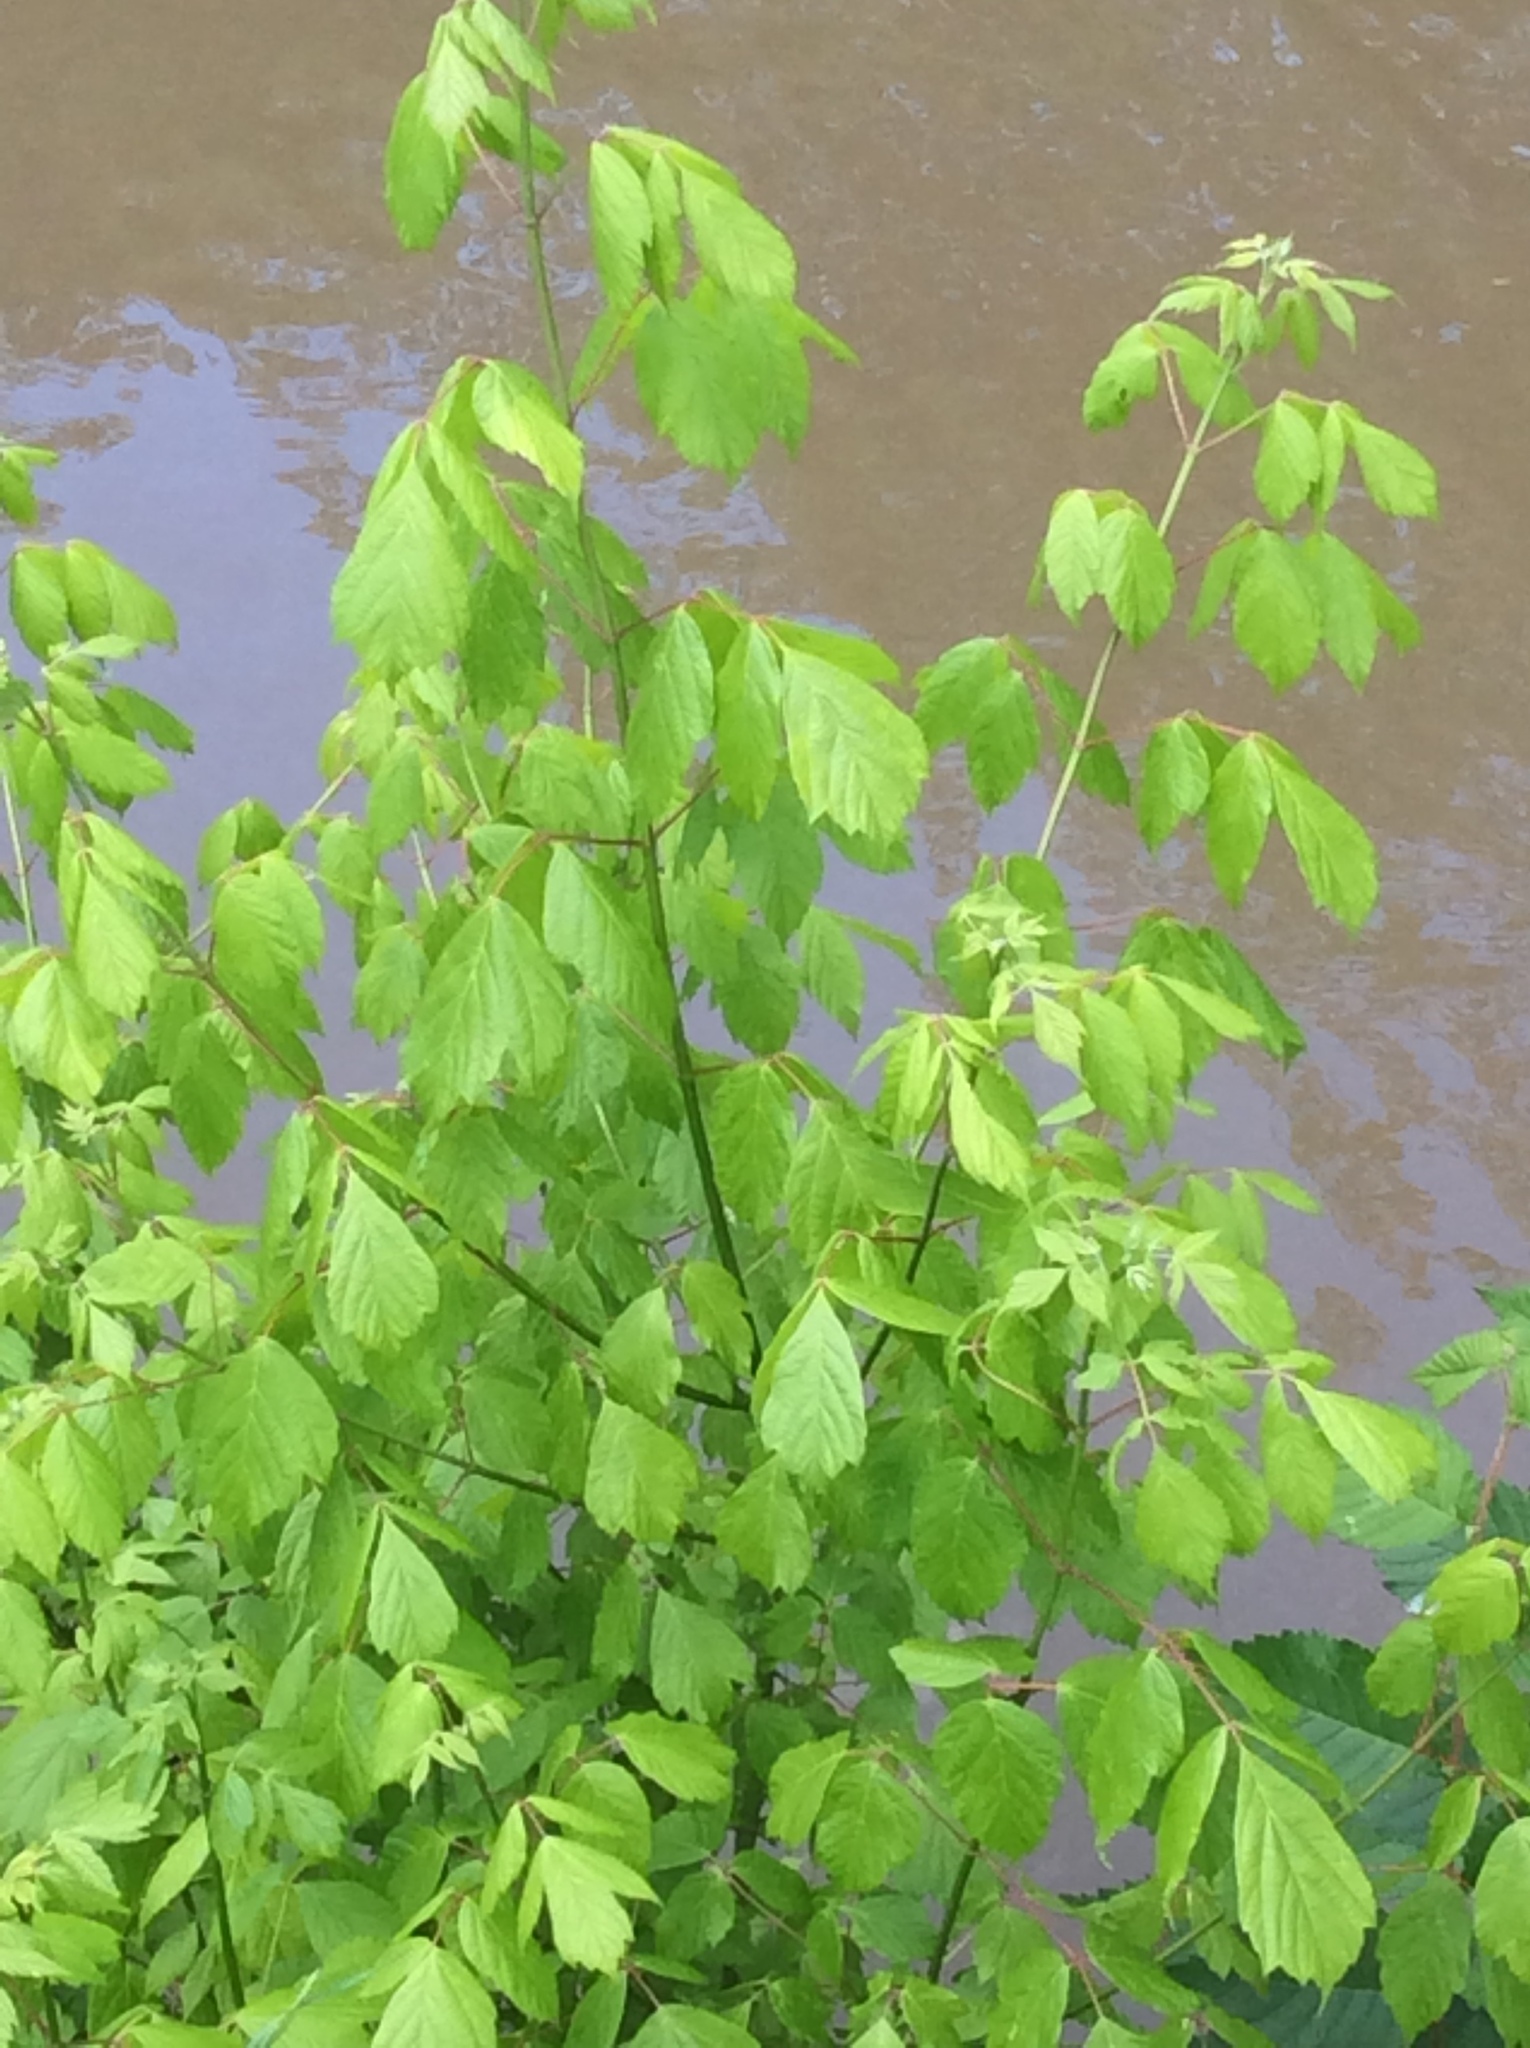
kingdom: Plantae
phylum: Tracheophyta
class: Magnoliopsida
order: Sapindales
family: Sapindaceae
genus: Acer
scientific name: Acer negundo
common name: Ashleaf maple
